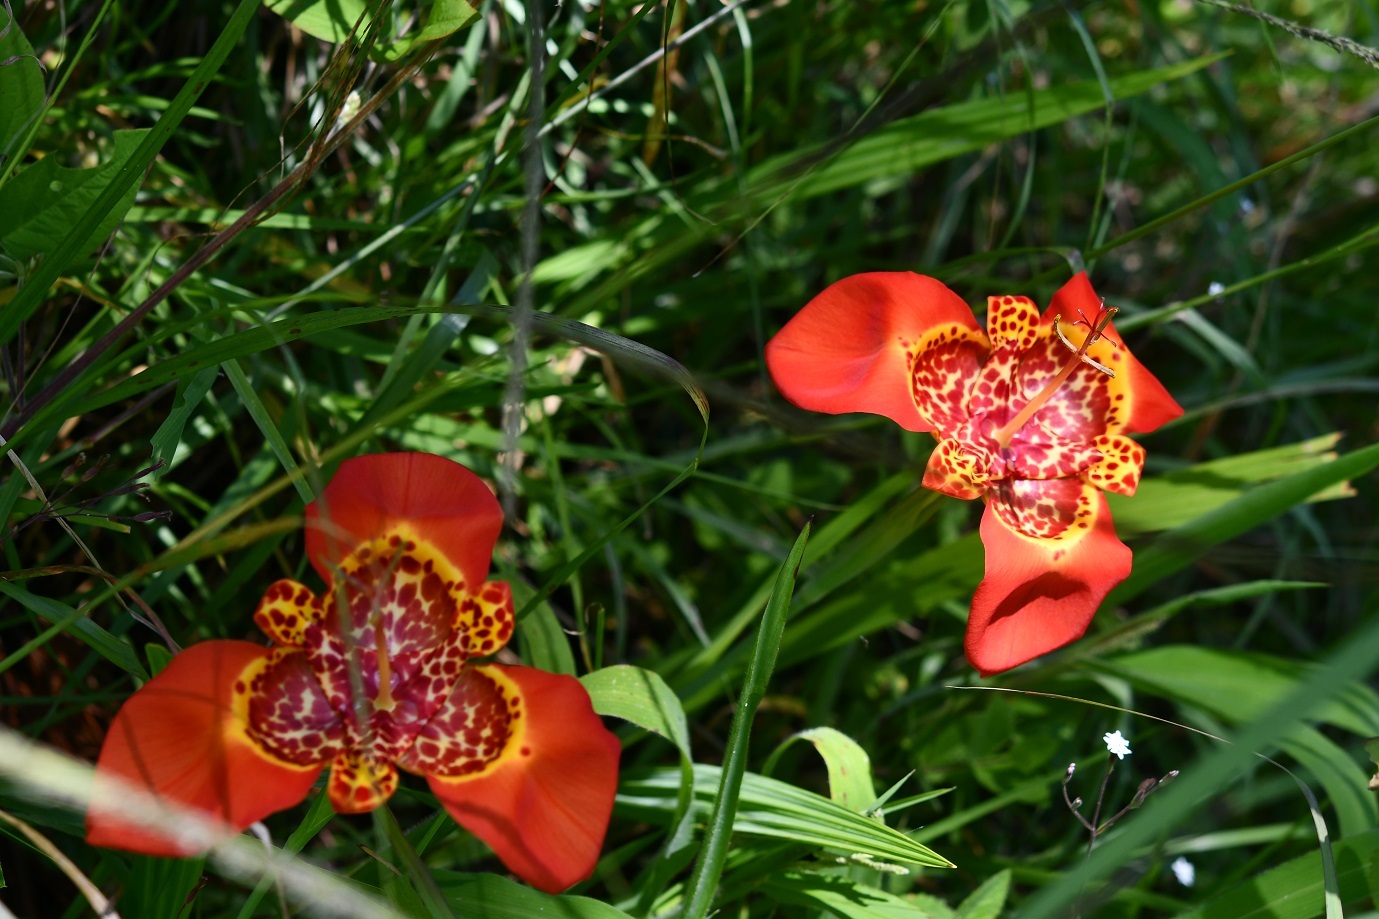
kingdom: Plantae
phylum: Tracheophyta
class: Liliopsida
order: Asparagales
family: Iridaceae
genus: Tigridia
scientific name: Tigridia pavonia
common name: Peacock-flower
